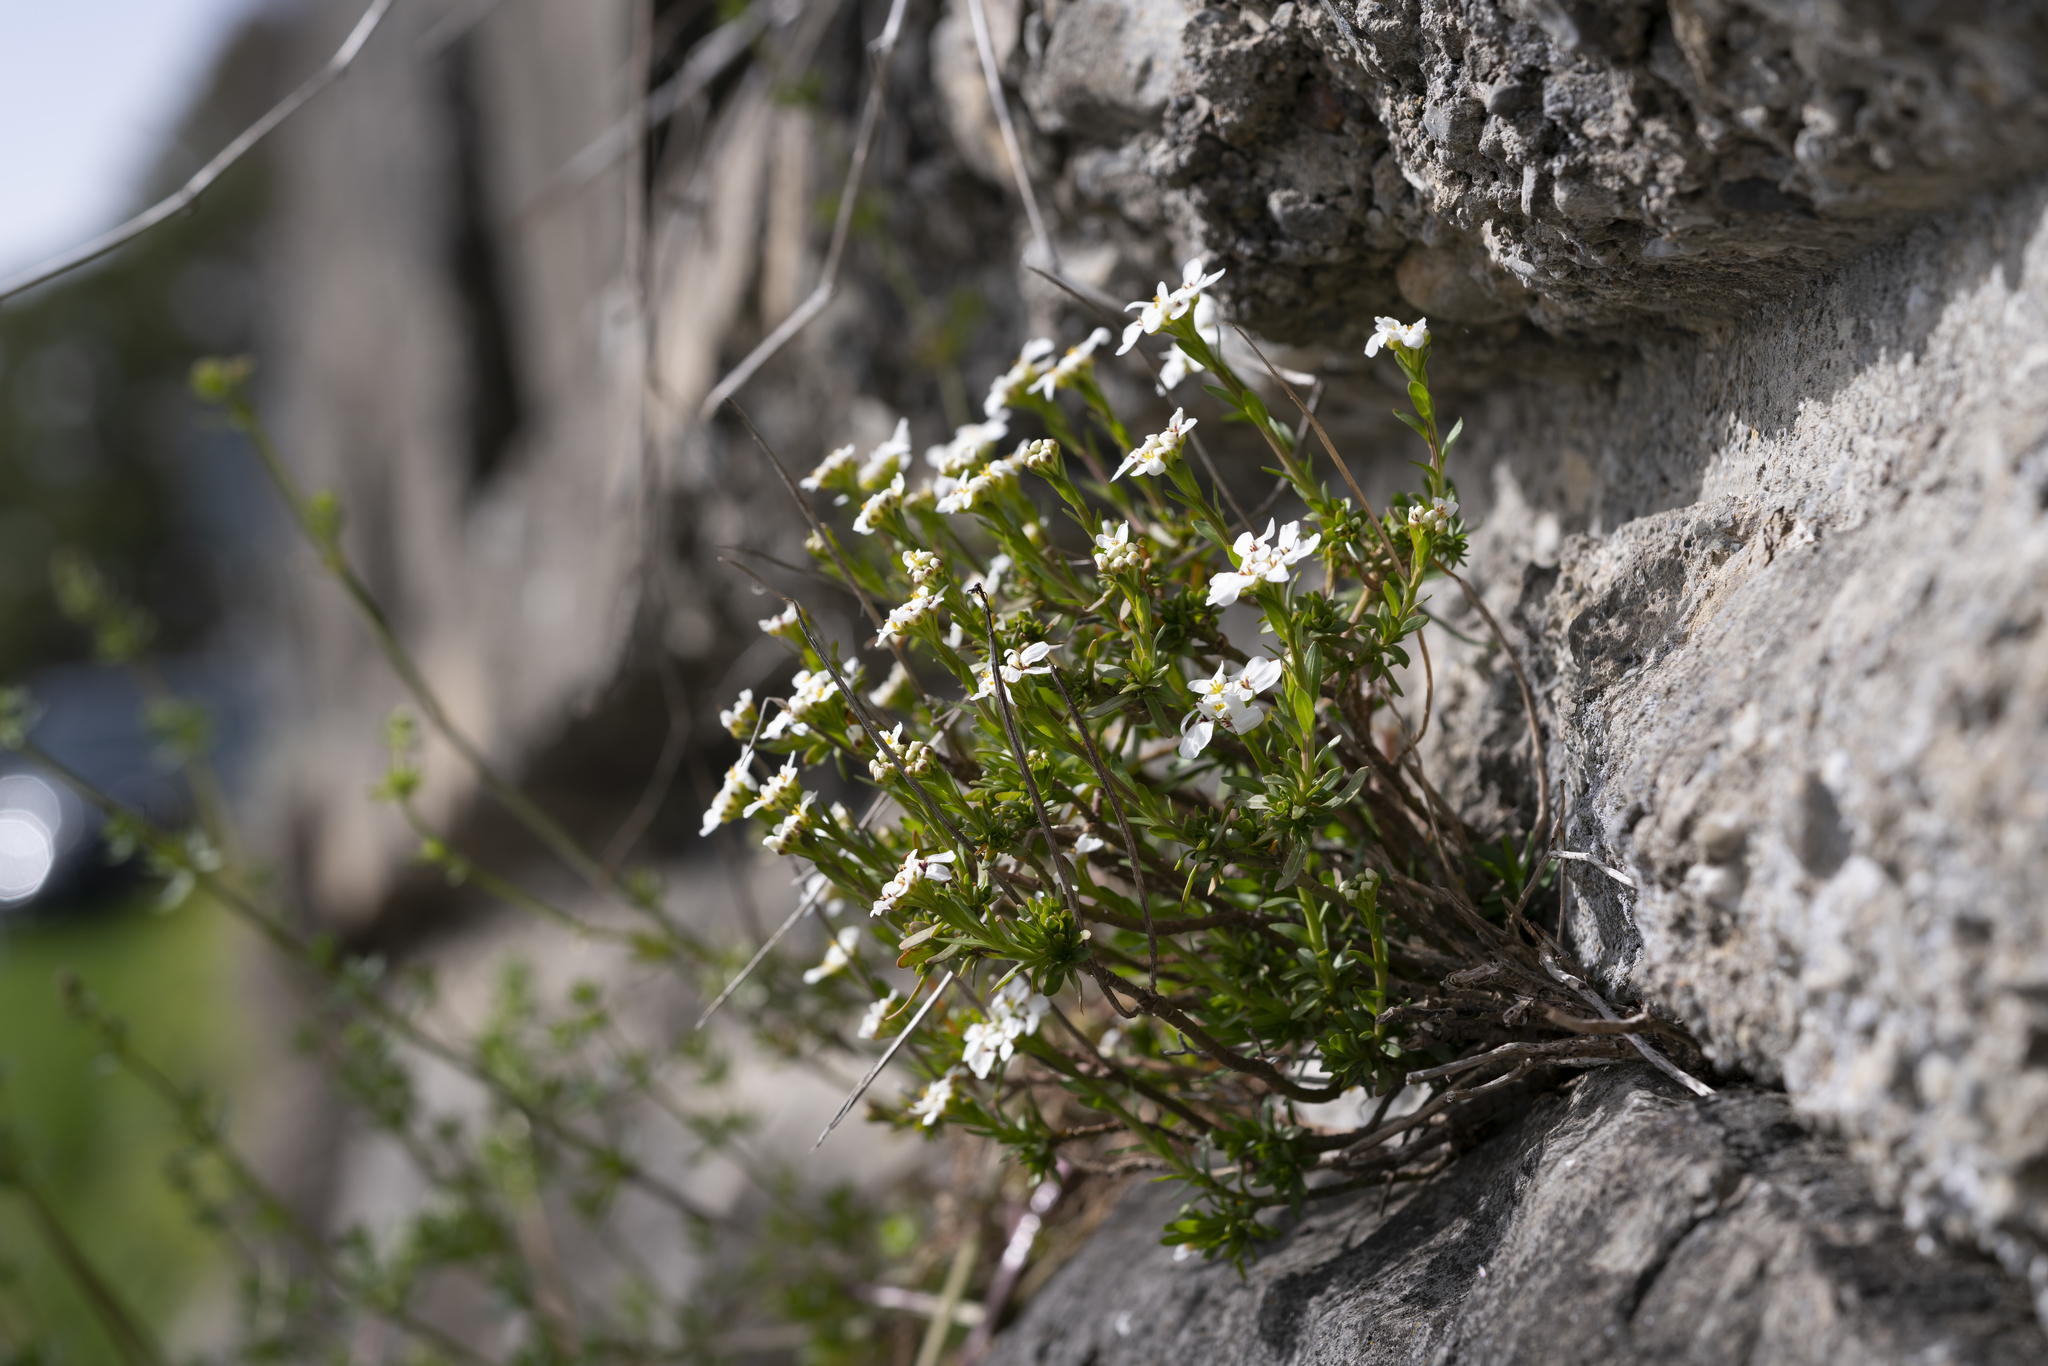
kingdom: Plantae
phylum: Tracheophyta
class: Magnoliopsida
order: Brassicales
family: Brassicaceae
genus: Iberis
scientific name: Iberis sempervirens
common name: Evergreen candytuft
